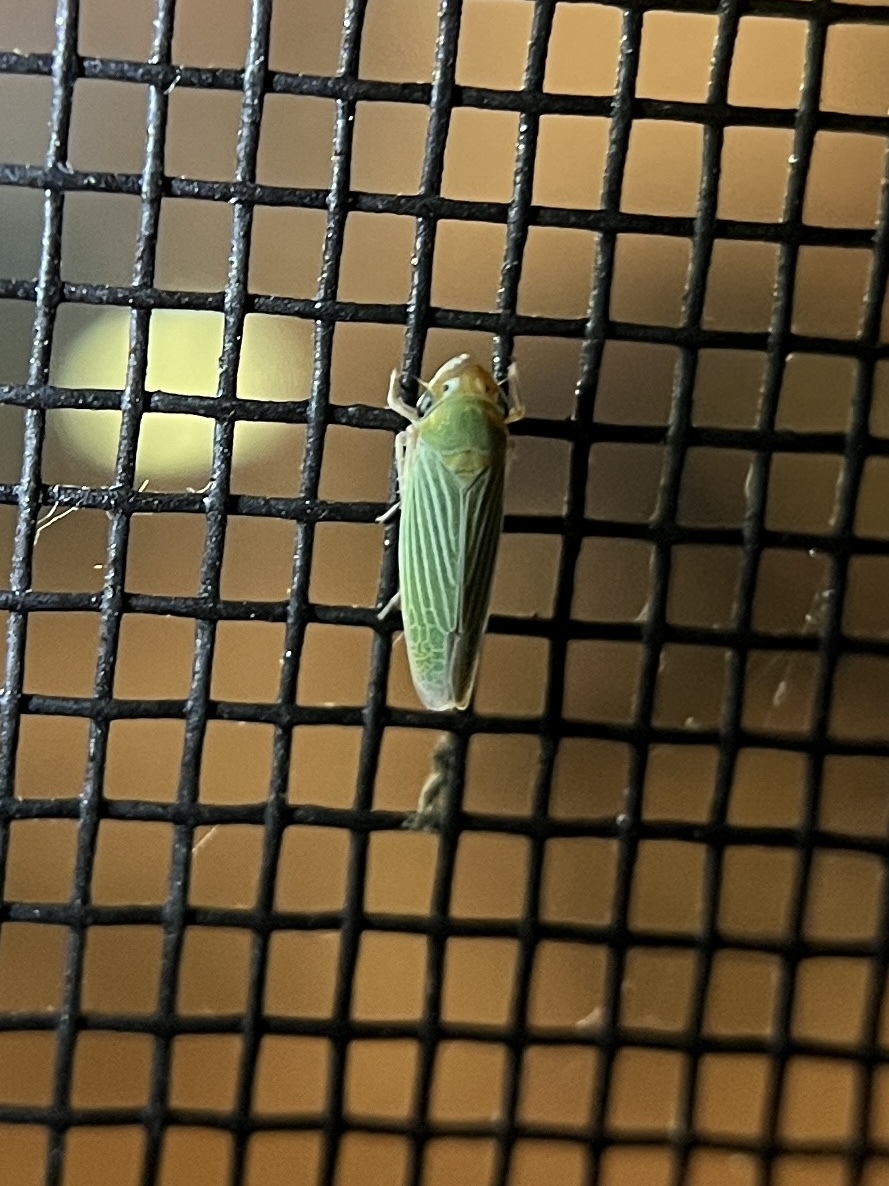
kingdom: Animalia
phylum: Arthropoda
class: Insecta
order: Hemiptera
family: Cicadellidae
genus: Xyphon
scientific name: Xyphon flaviceps
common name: Yellowheaded leafhopper
